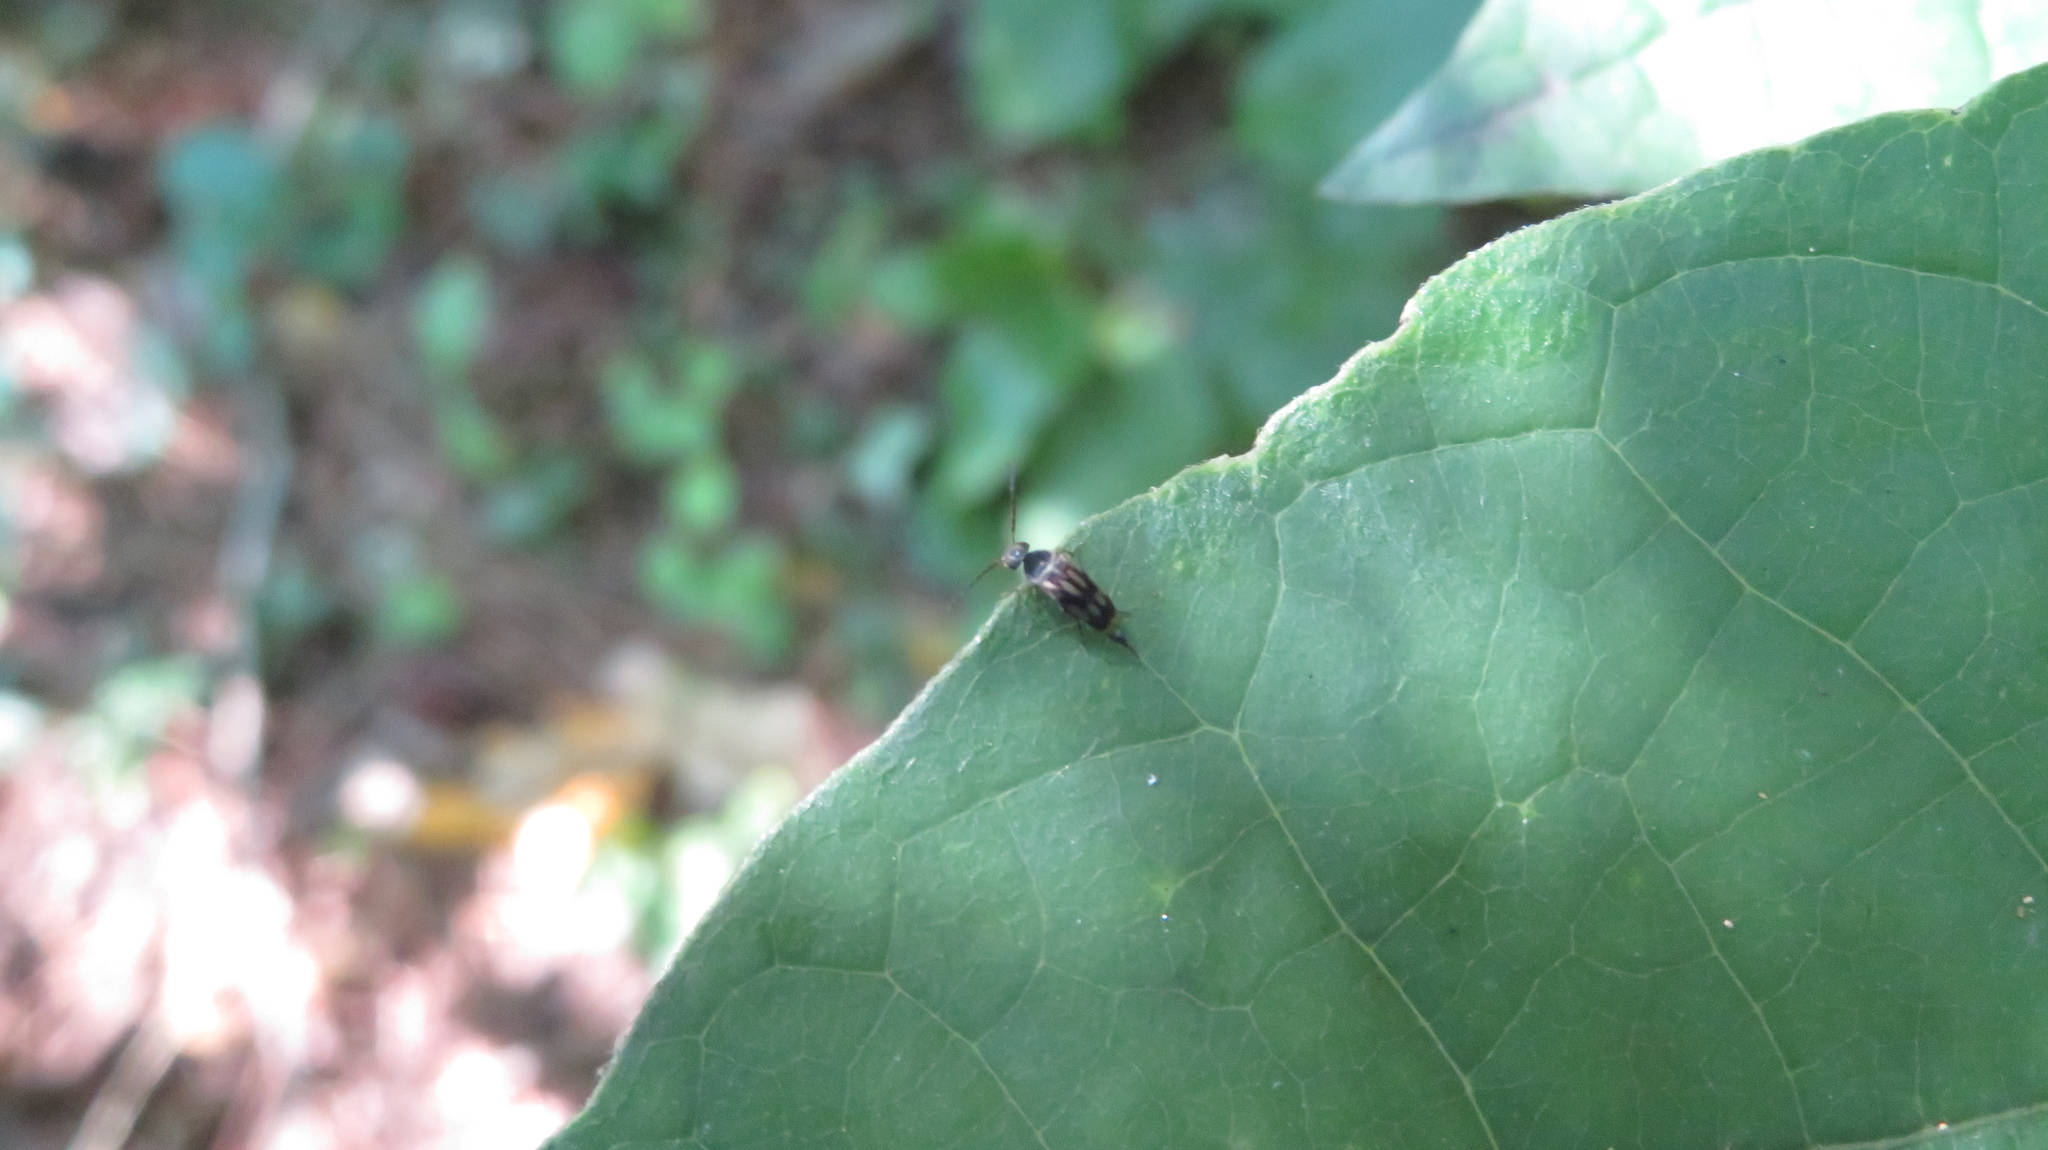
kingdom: Animalia
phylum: Arthropoda
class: Insecta
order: Coleoptera
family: Mordellidae
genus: Falsomordellistena
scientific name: Falsomordellistena bihamata
